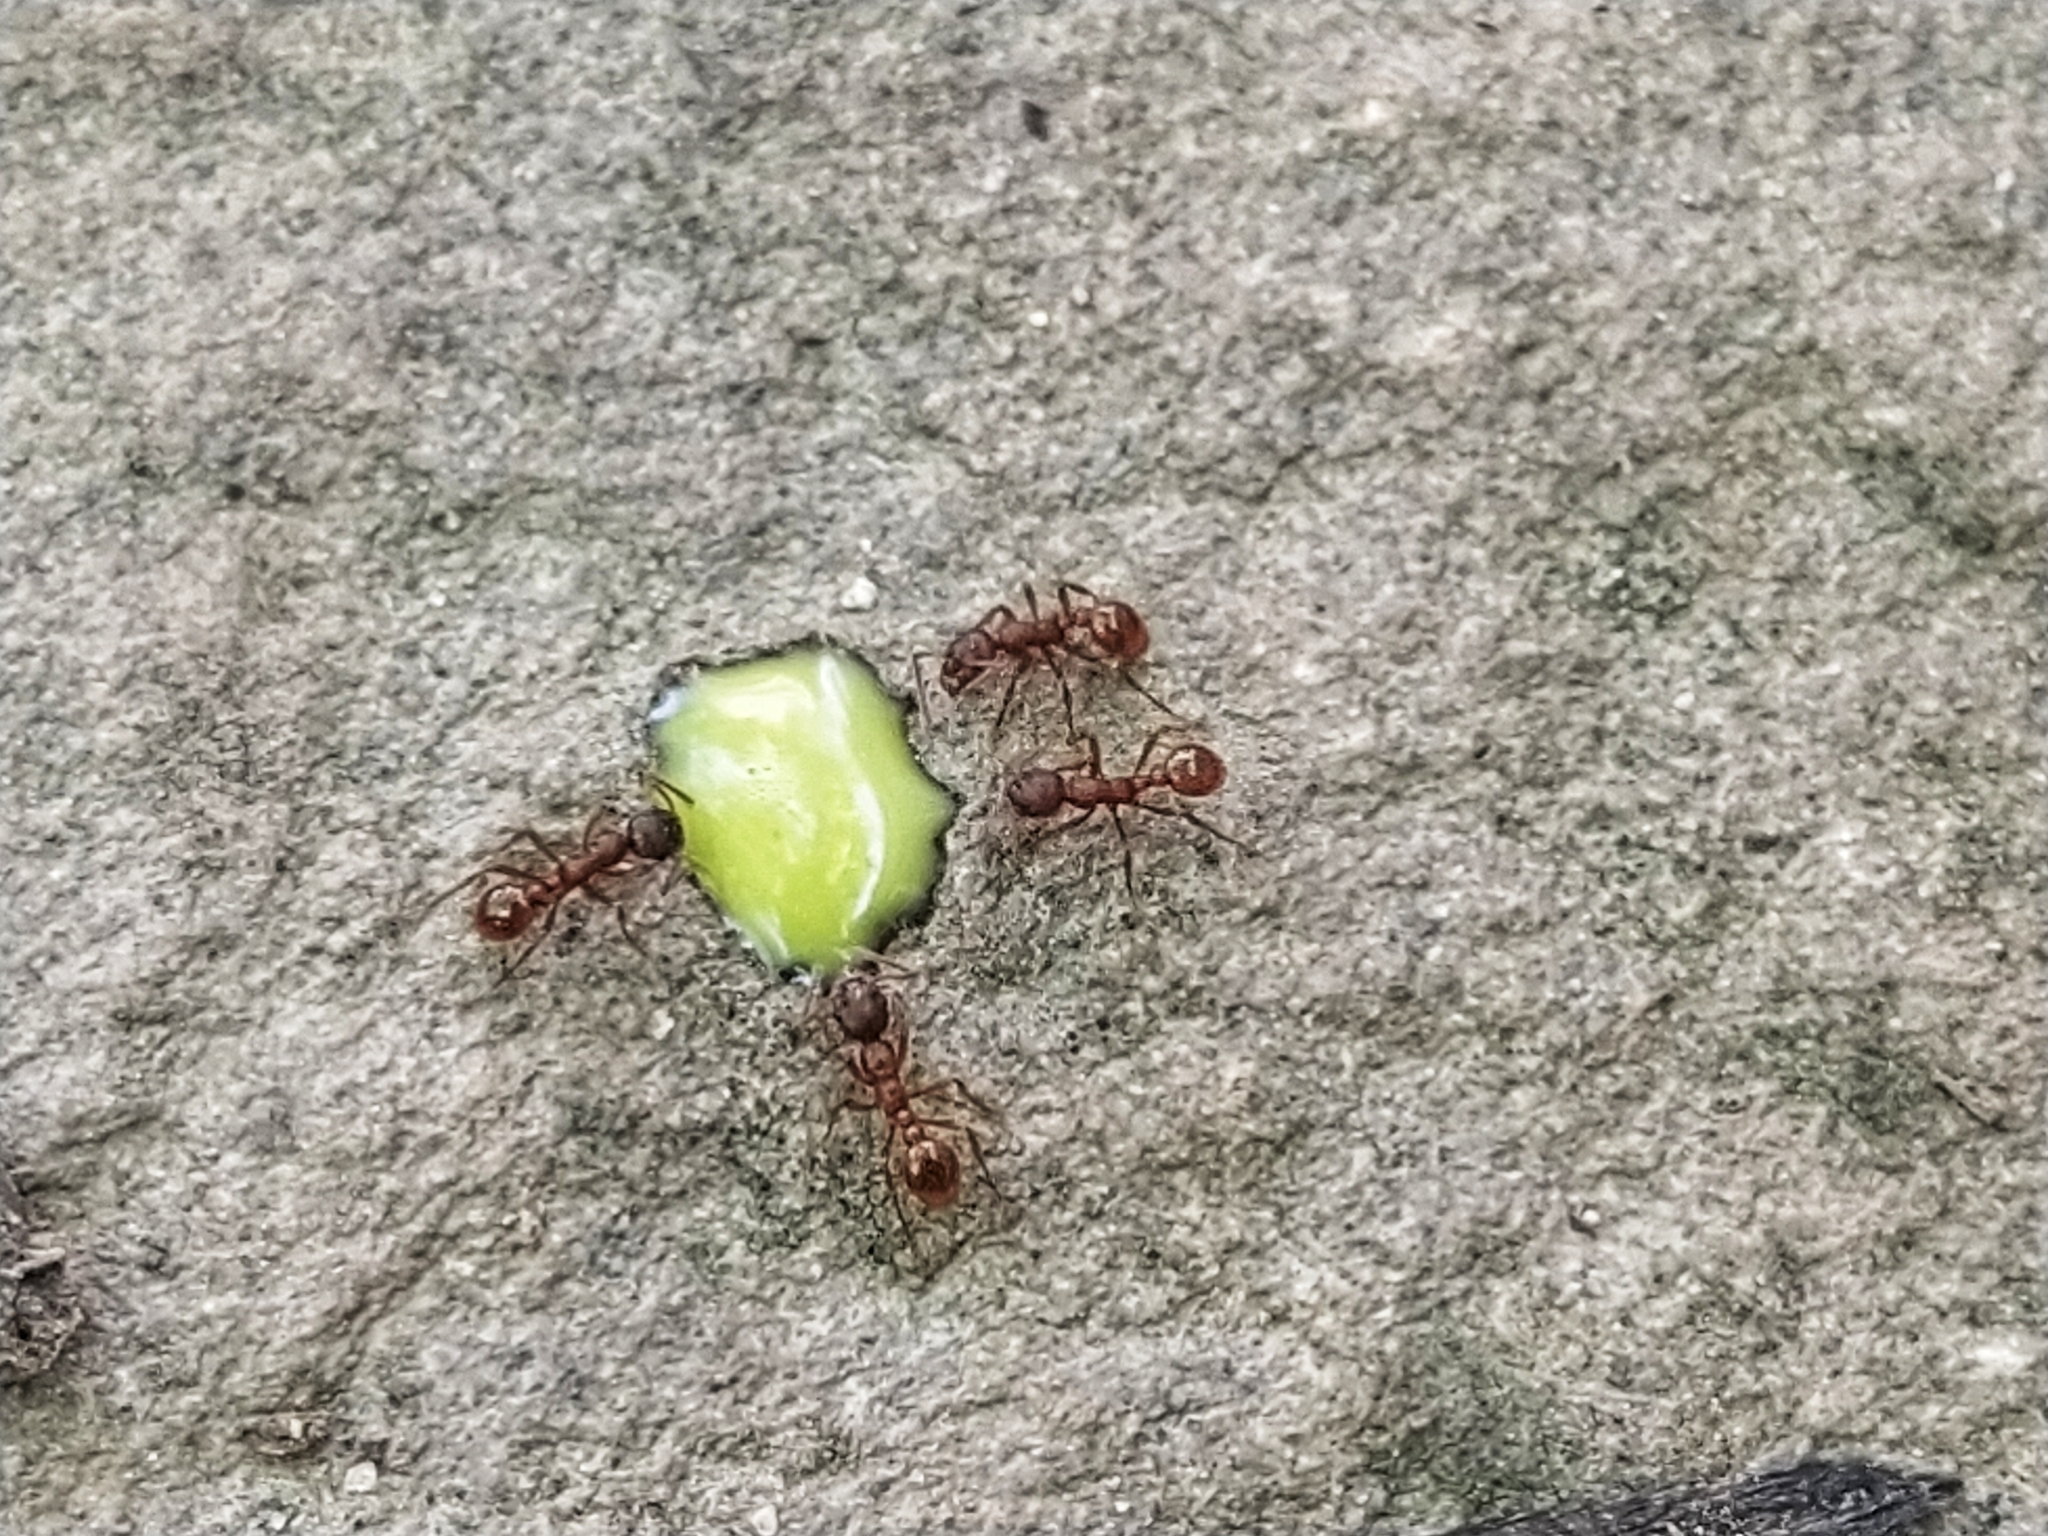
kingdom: Animalia
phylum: Arthropoda
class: Insecta
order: Hymenoptera
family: Formicidae
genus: Myrmica
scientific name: Myrmica rubra
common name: European fire ant
